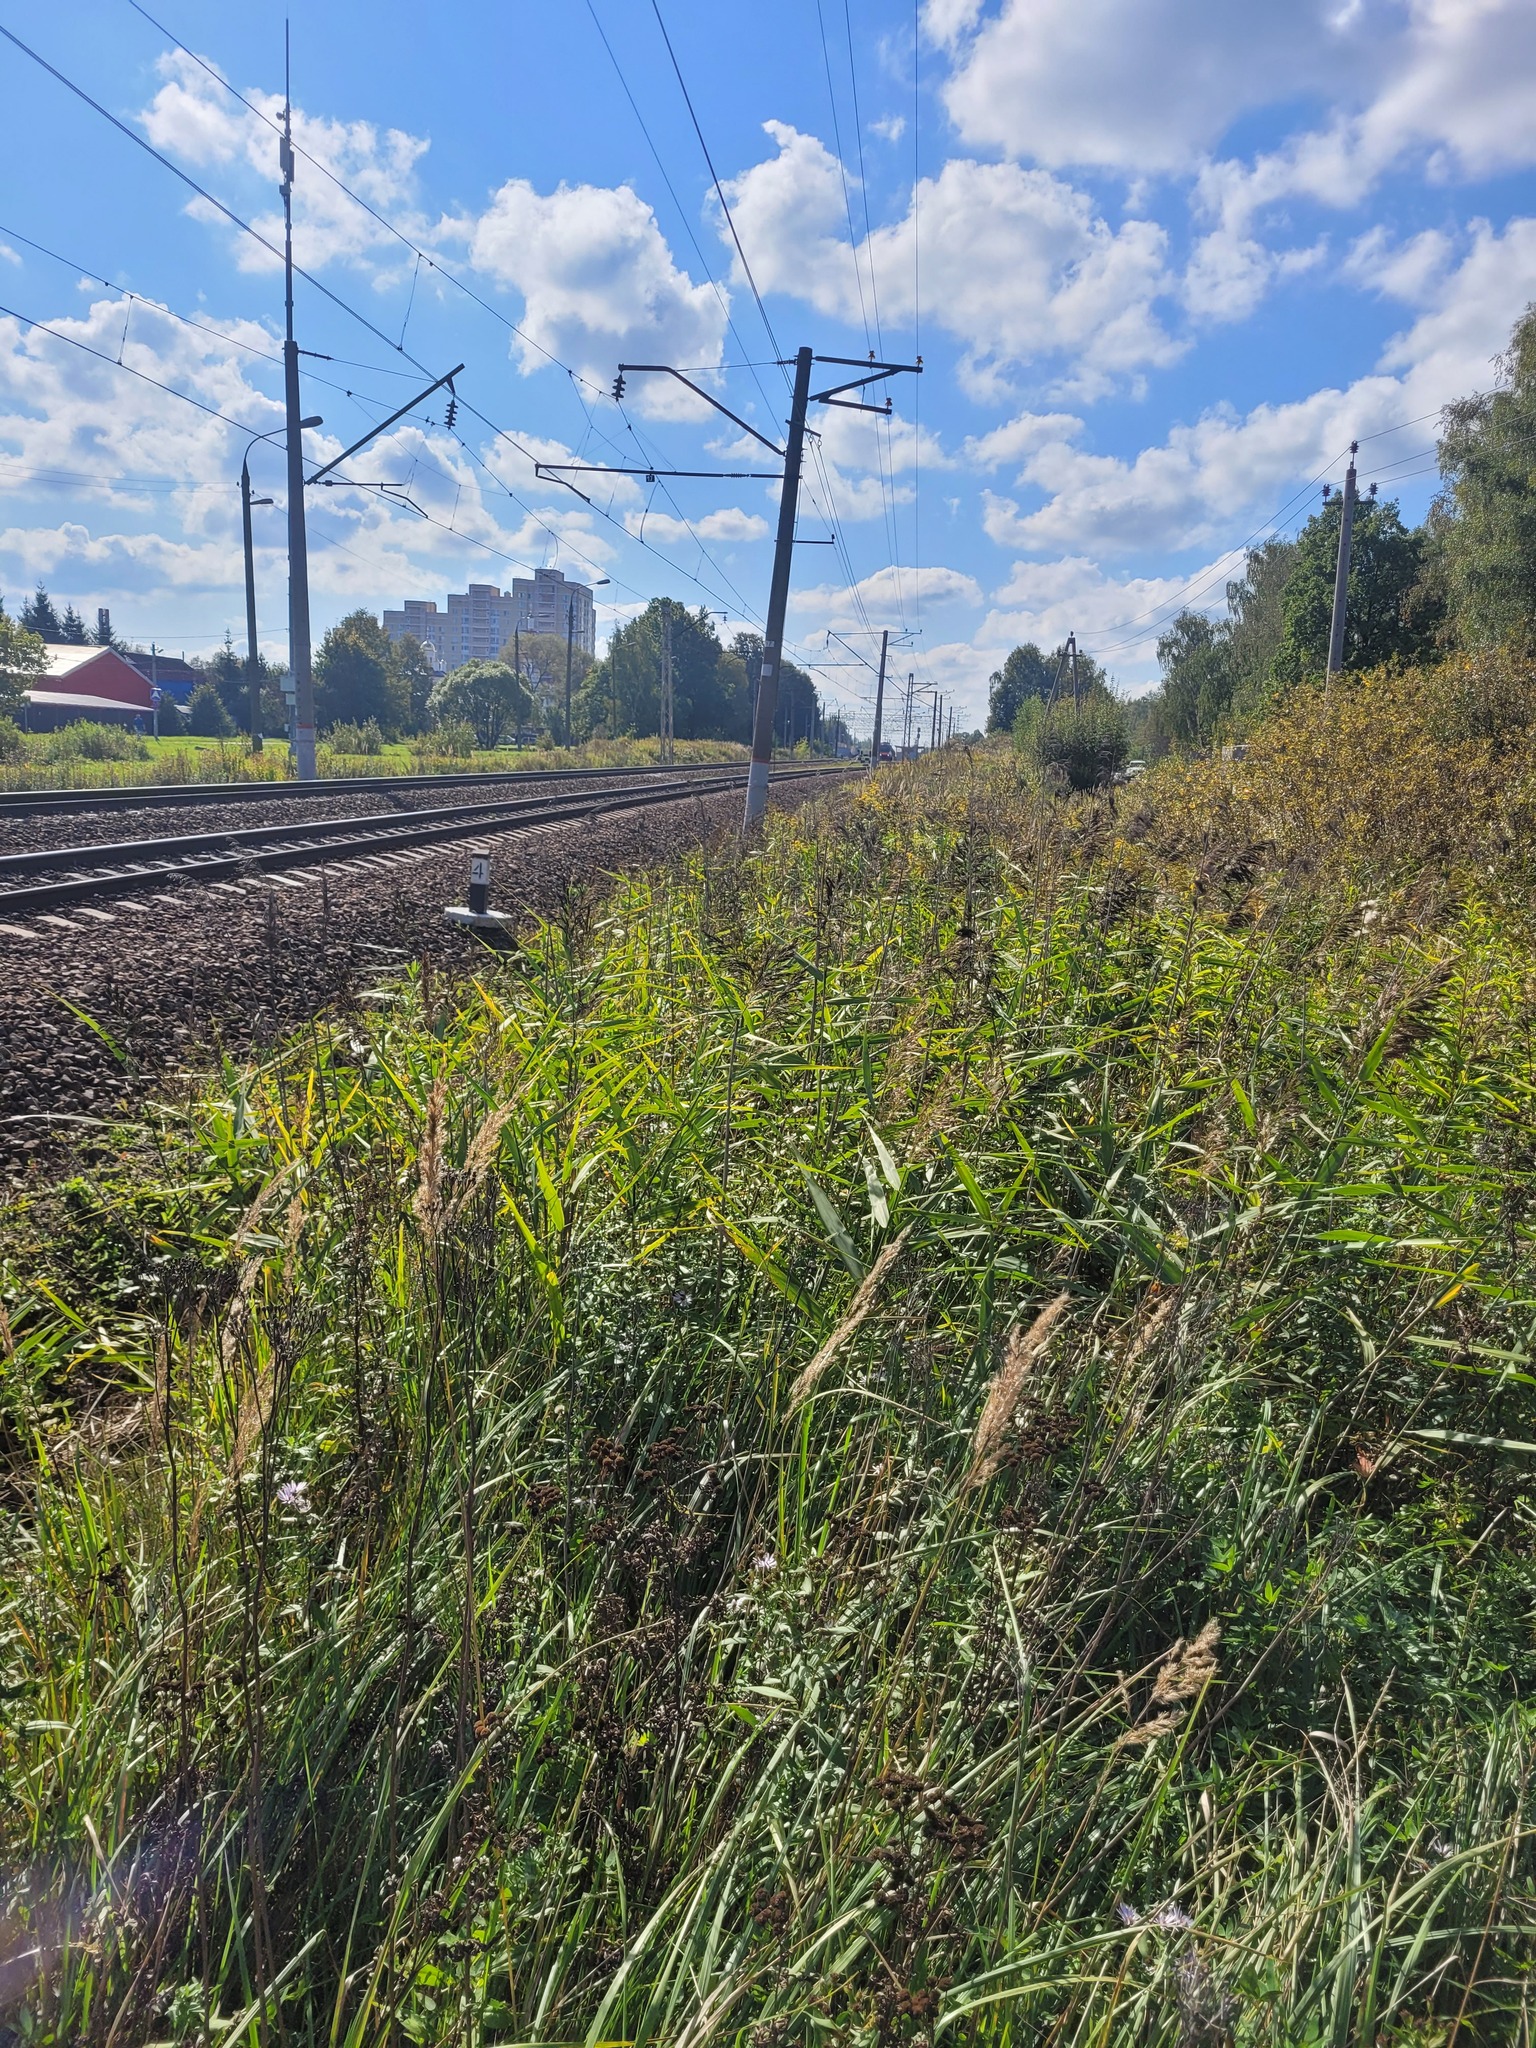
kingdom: Plantae
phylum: Tracheophyta
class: Liliopsida
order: Poales
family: Poaceae
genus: Phragmites
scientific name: Phragmites australis
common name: Common reed
